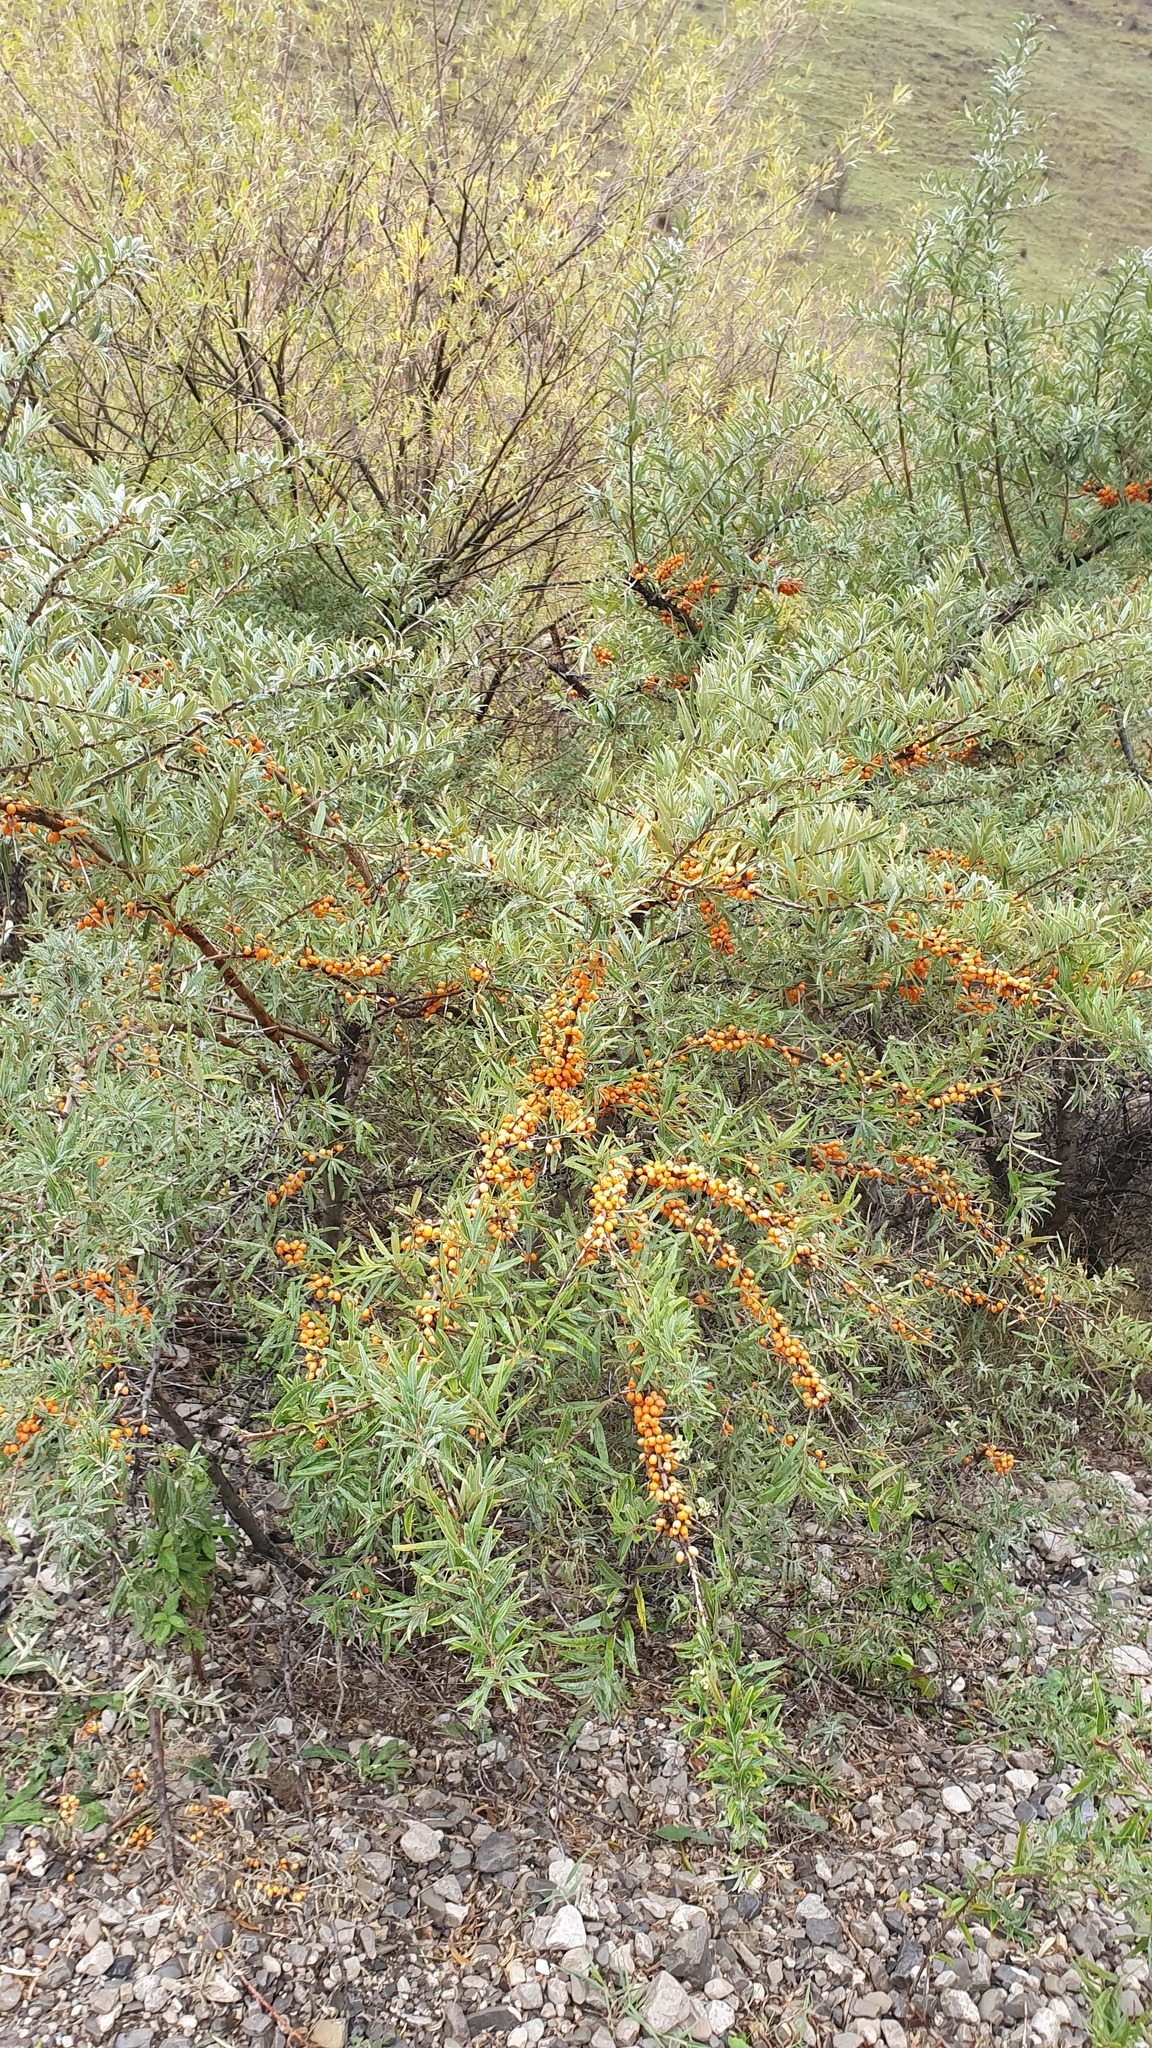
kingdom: Plantae
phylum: Tracheophyta
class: Magnoliopsida
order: Rosales
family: Elaeagnaceae
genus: Hippophae
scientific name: Hippophae rhamnoides
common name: Sea-buckthorn
